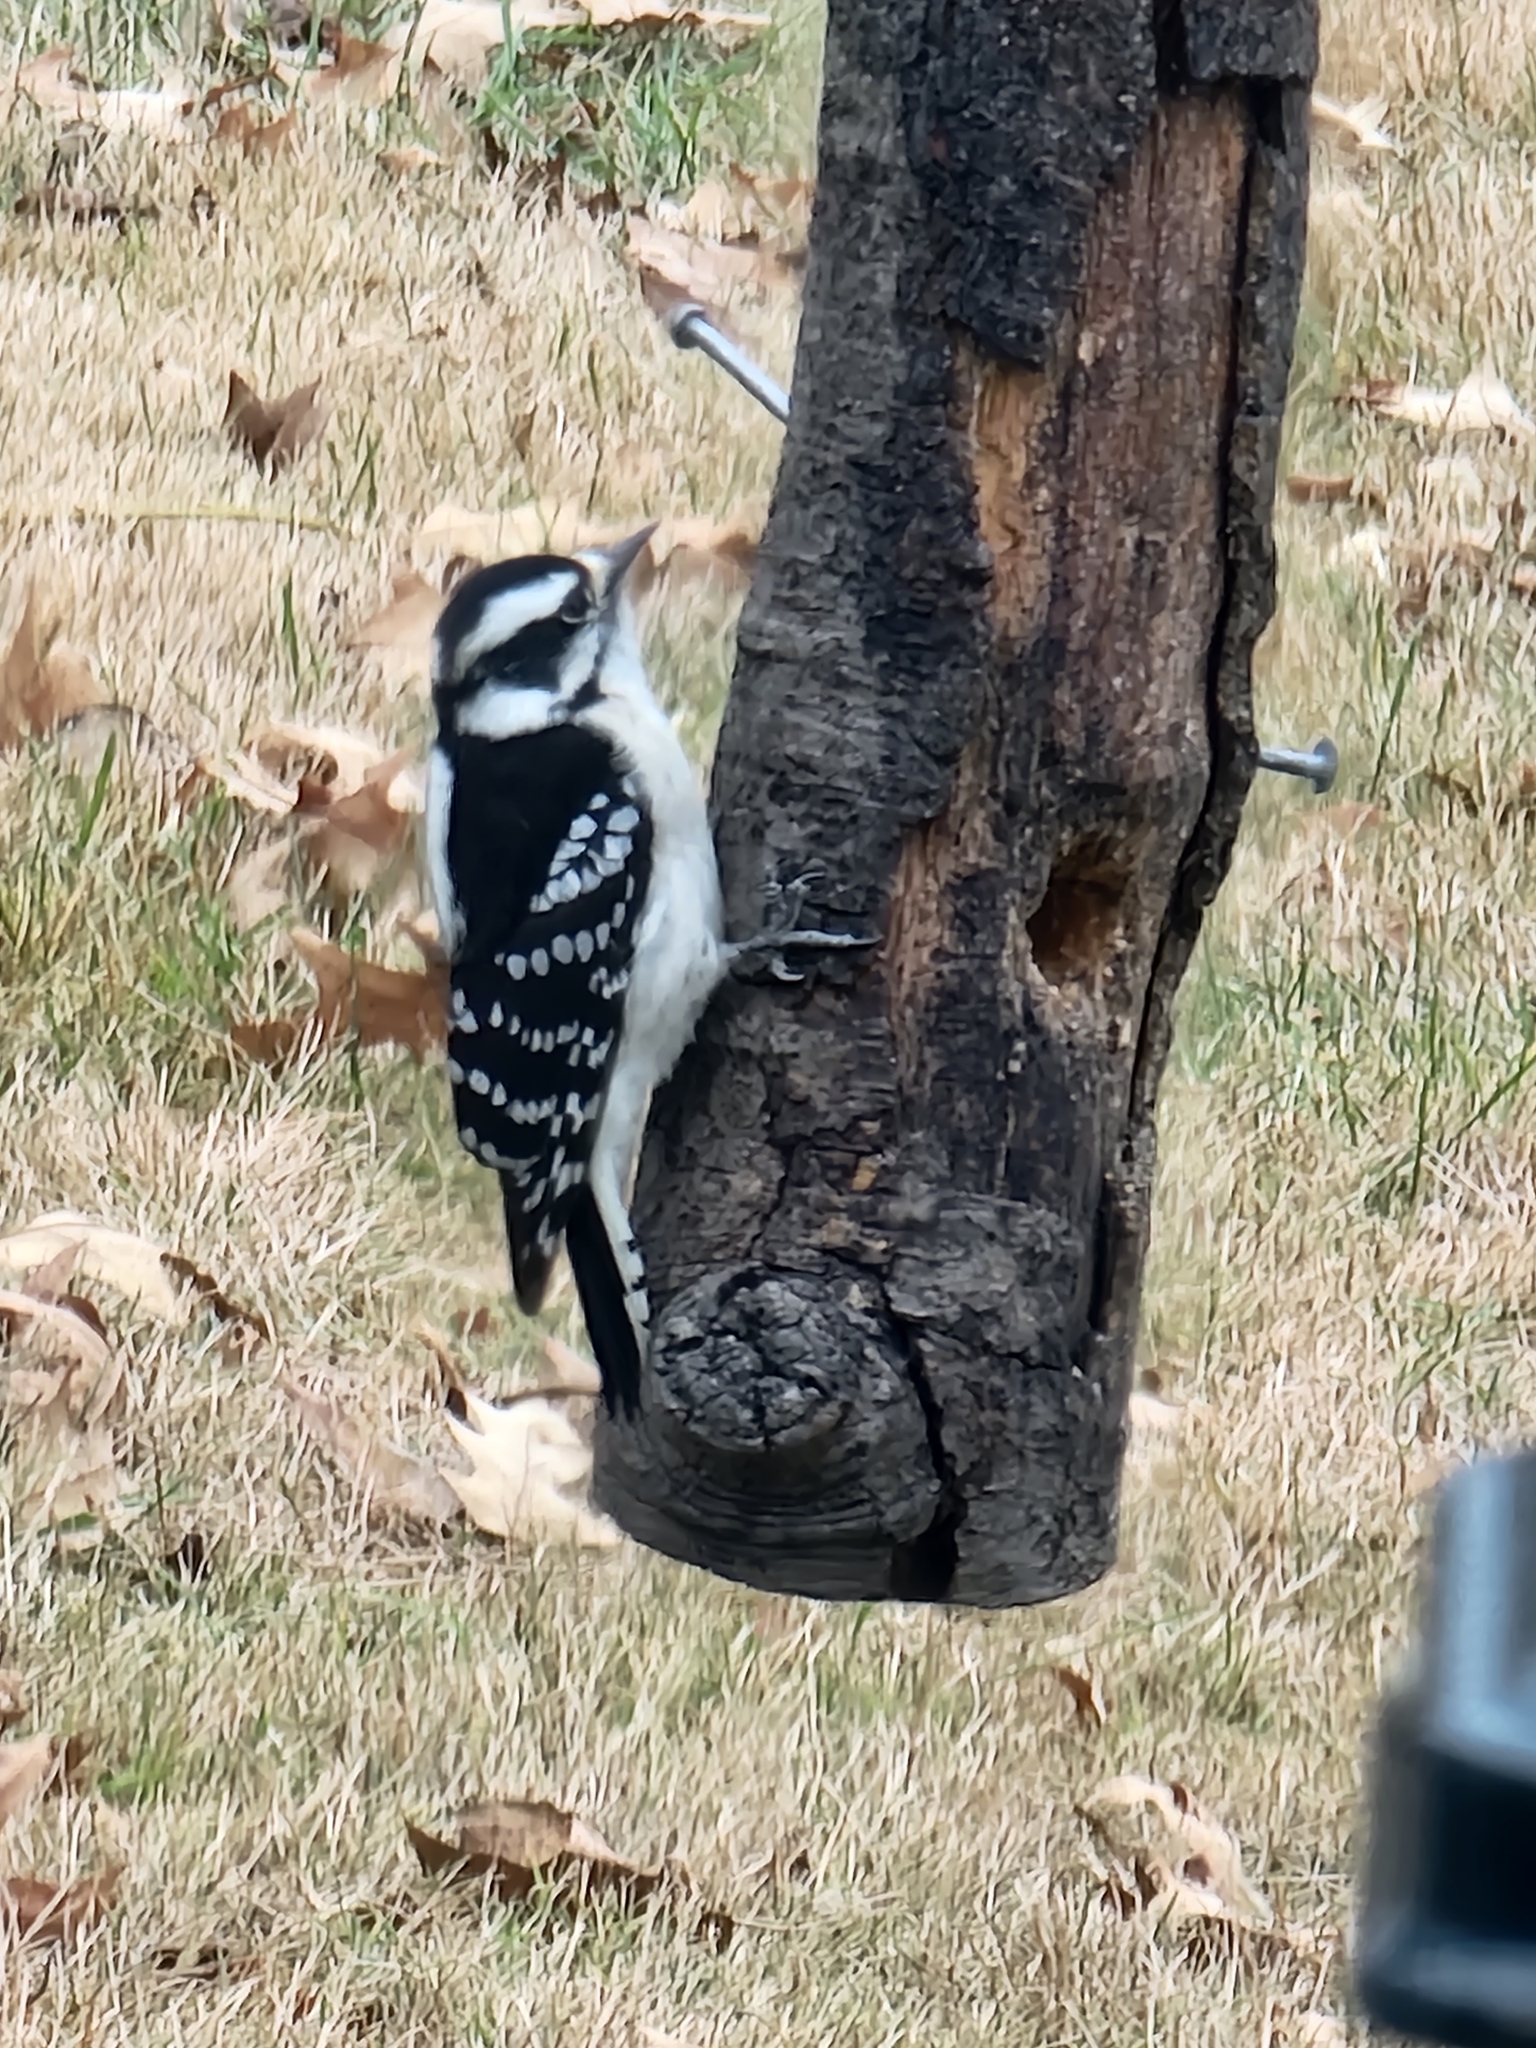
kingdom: Animalia
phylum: Chordata
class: Aves
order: Piciformes
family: Picidae
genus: Dryobates
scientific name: Dryobates pubescens
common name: Downy woodpecker
